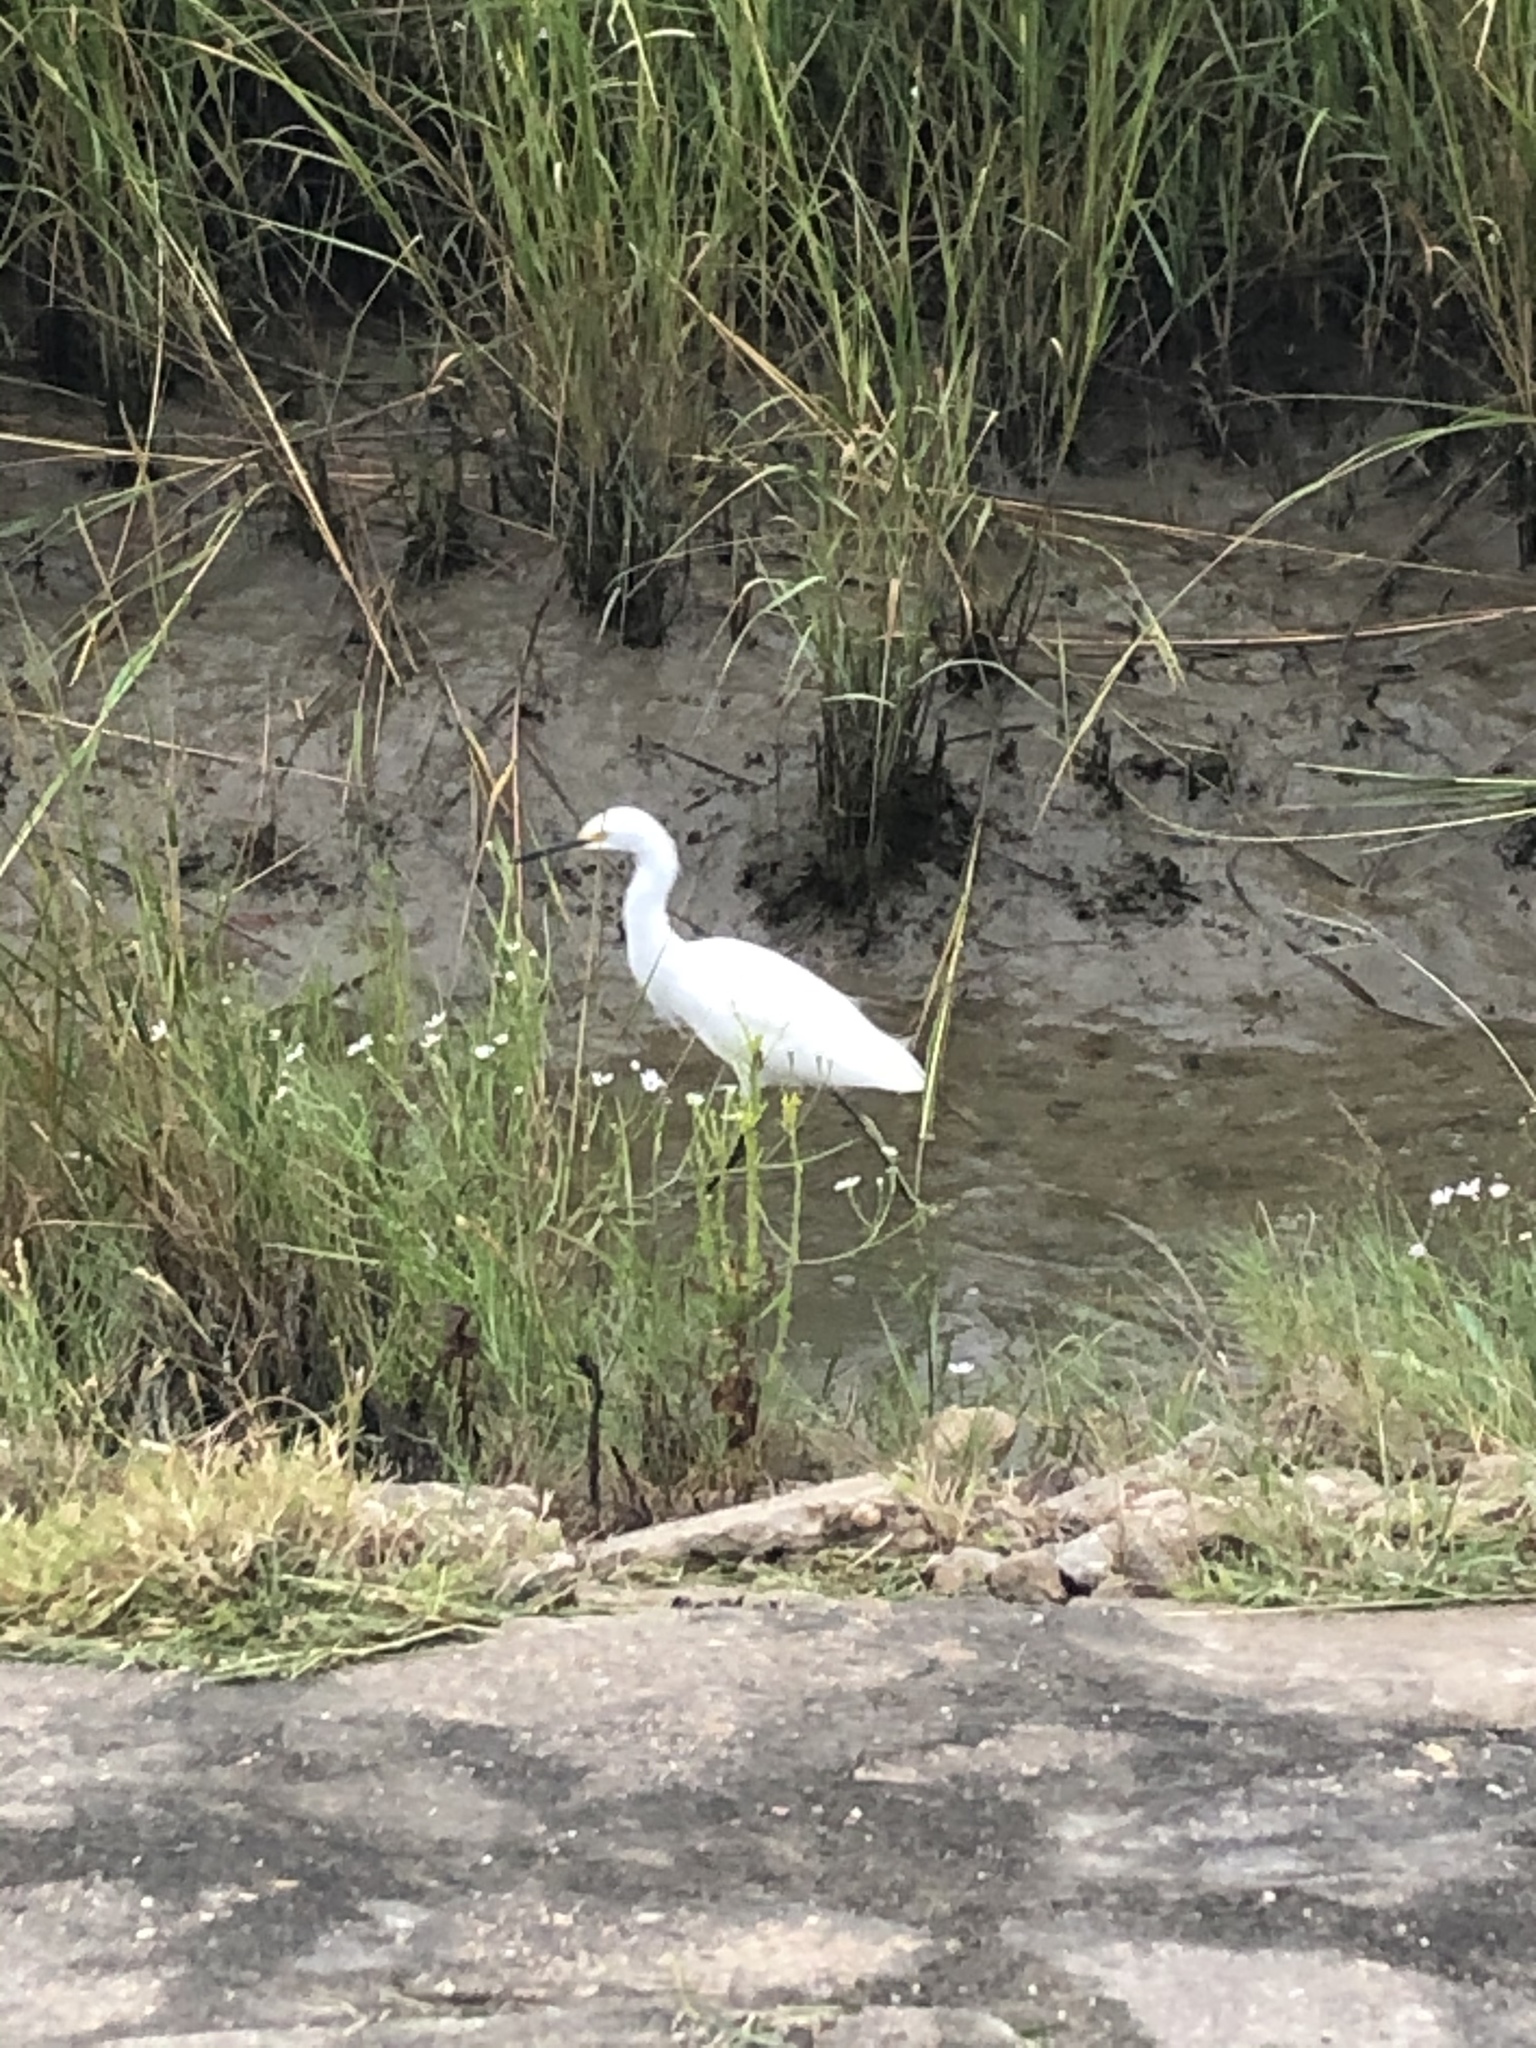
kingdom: Animalia
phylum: Chordata
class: Aves
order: Pelecaniformes
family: Ardeidae
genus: Egretta
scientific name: Egretta thula
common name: Snowy egret
